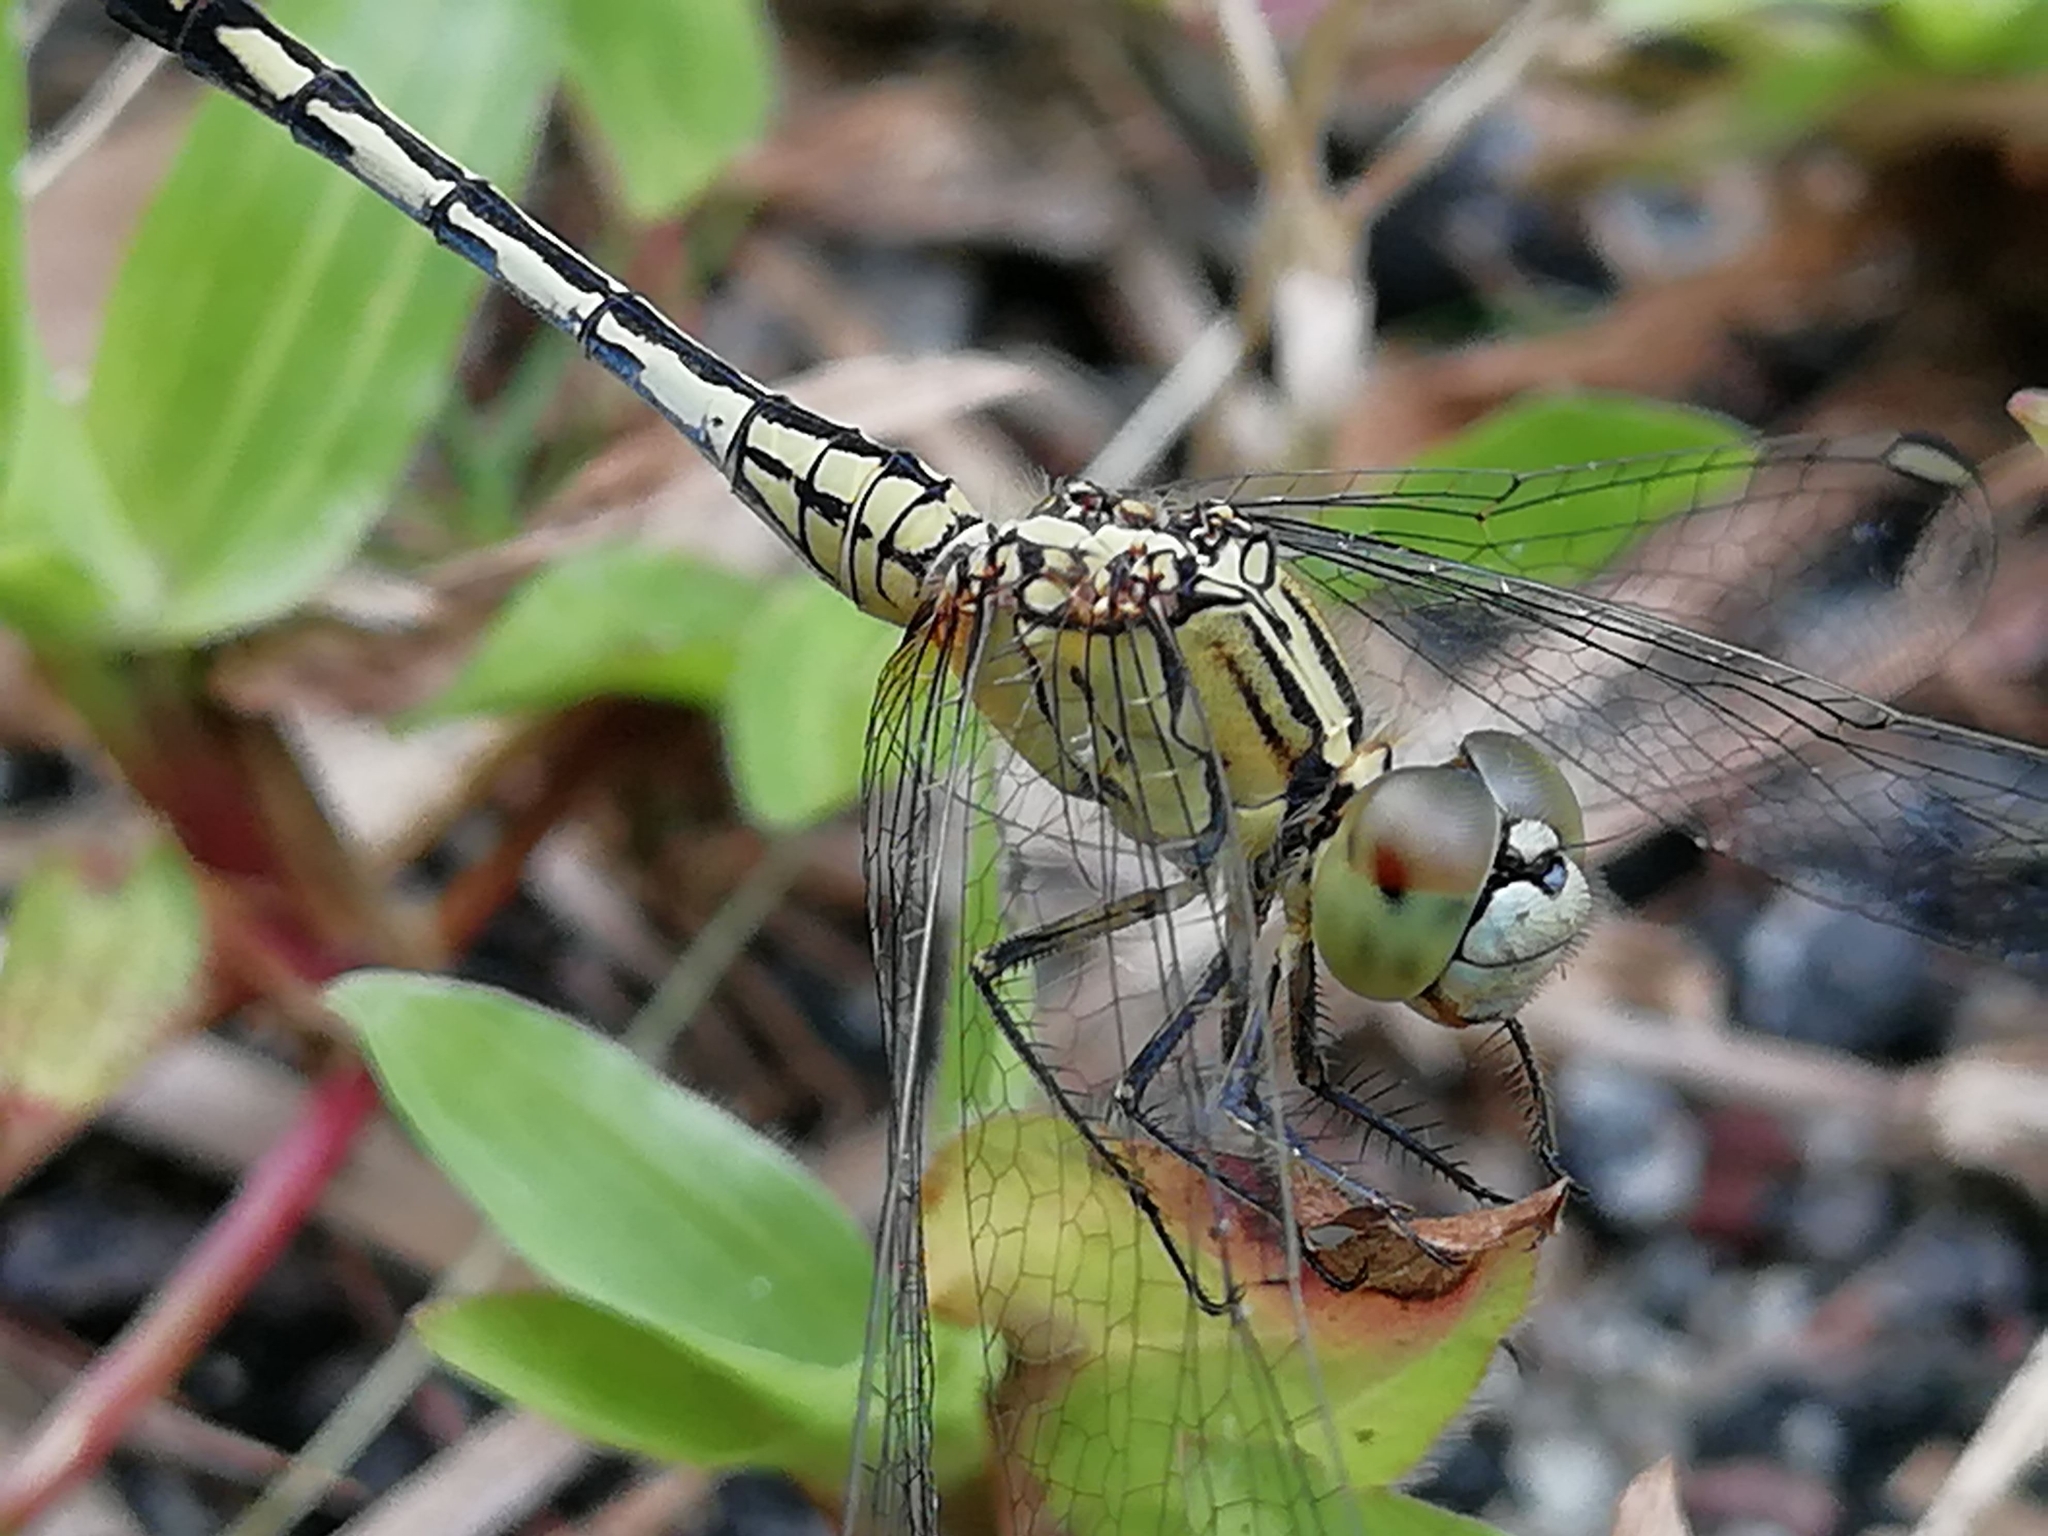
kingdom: Animalia
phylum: Arthropoda
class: Insecta
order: Odonata
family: Libellulidae
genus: Diplacodes
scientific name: Diplacodes trivialis
